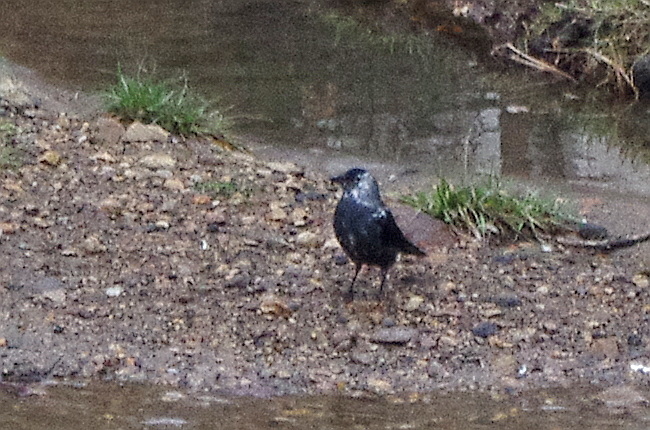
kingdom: Animalia
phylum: Chordata
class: Aves
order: Passeriformes
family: Corvidae
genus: Coloeus
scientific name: Coloeus monedula
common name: Western jackdaw
